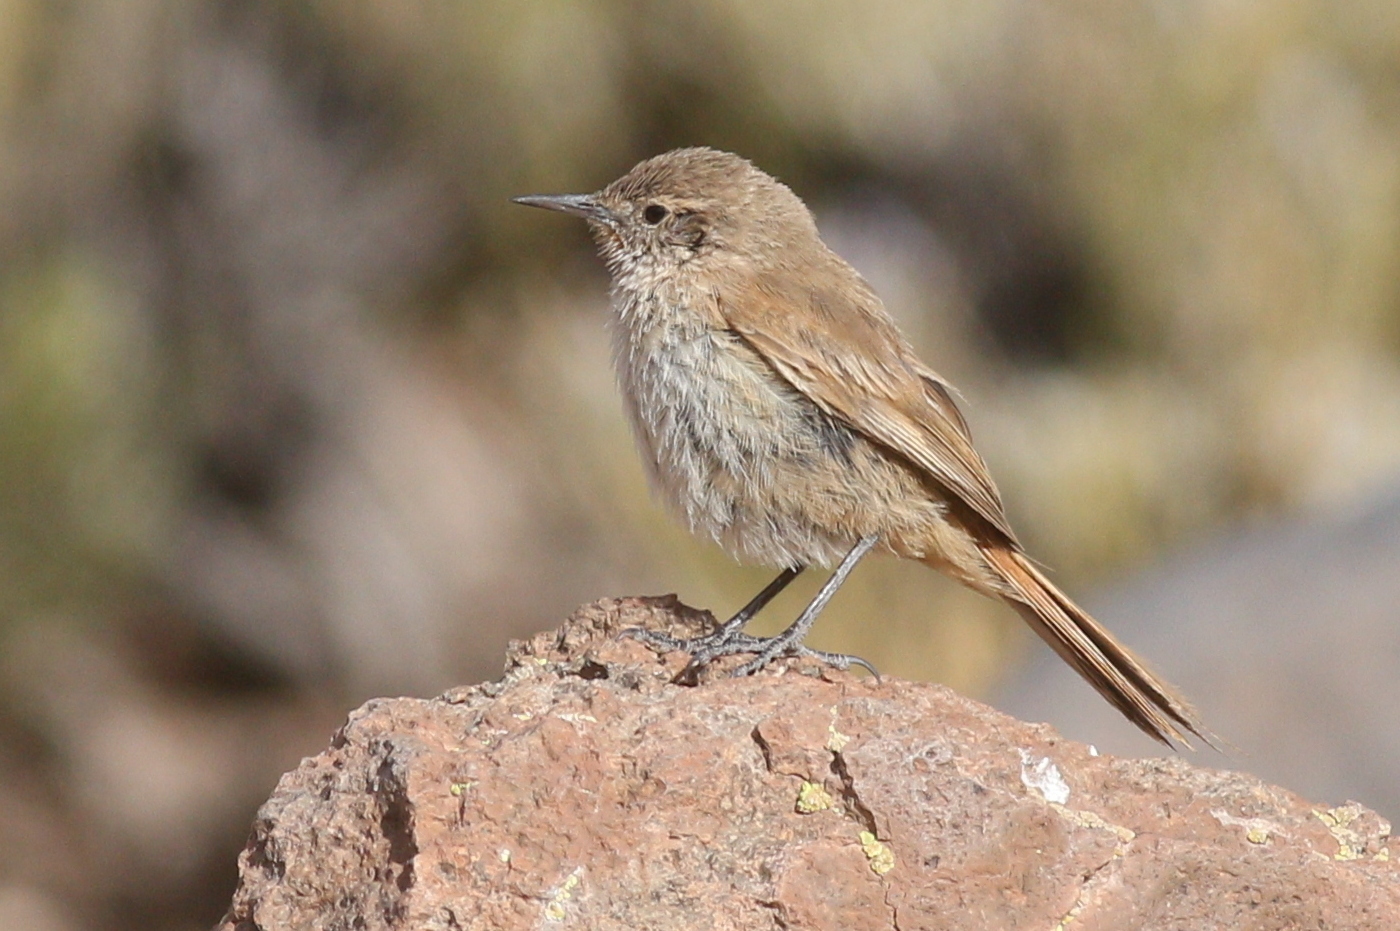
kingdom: Animalia
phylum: Chordata
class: Aves
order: Passeriformes
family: Furnariidae
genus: Asthenes
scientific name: Asthenes modesta
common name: Cordilleran canastero
